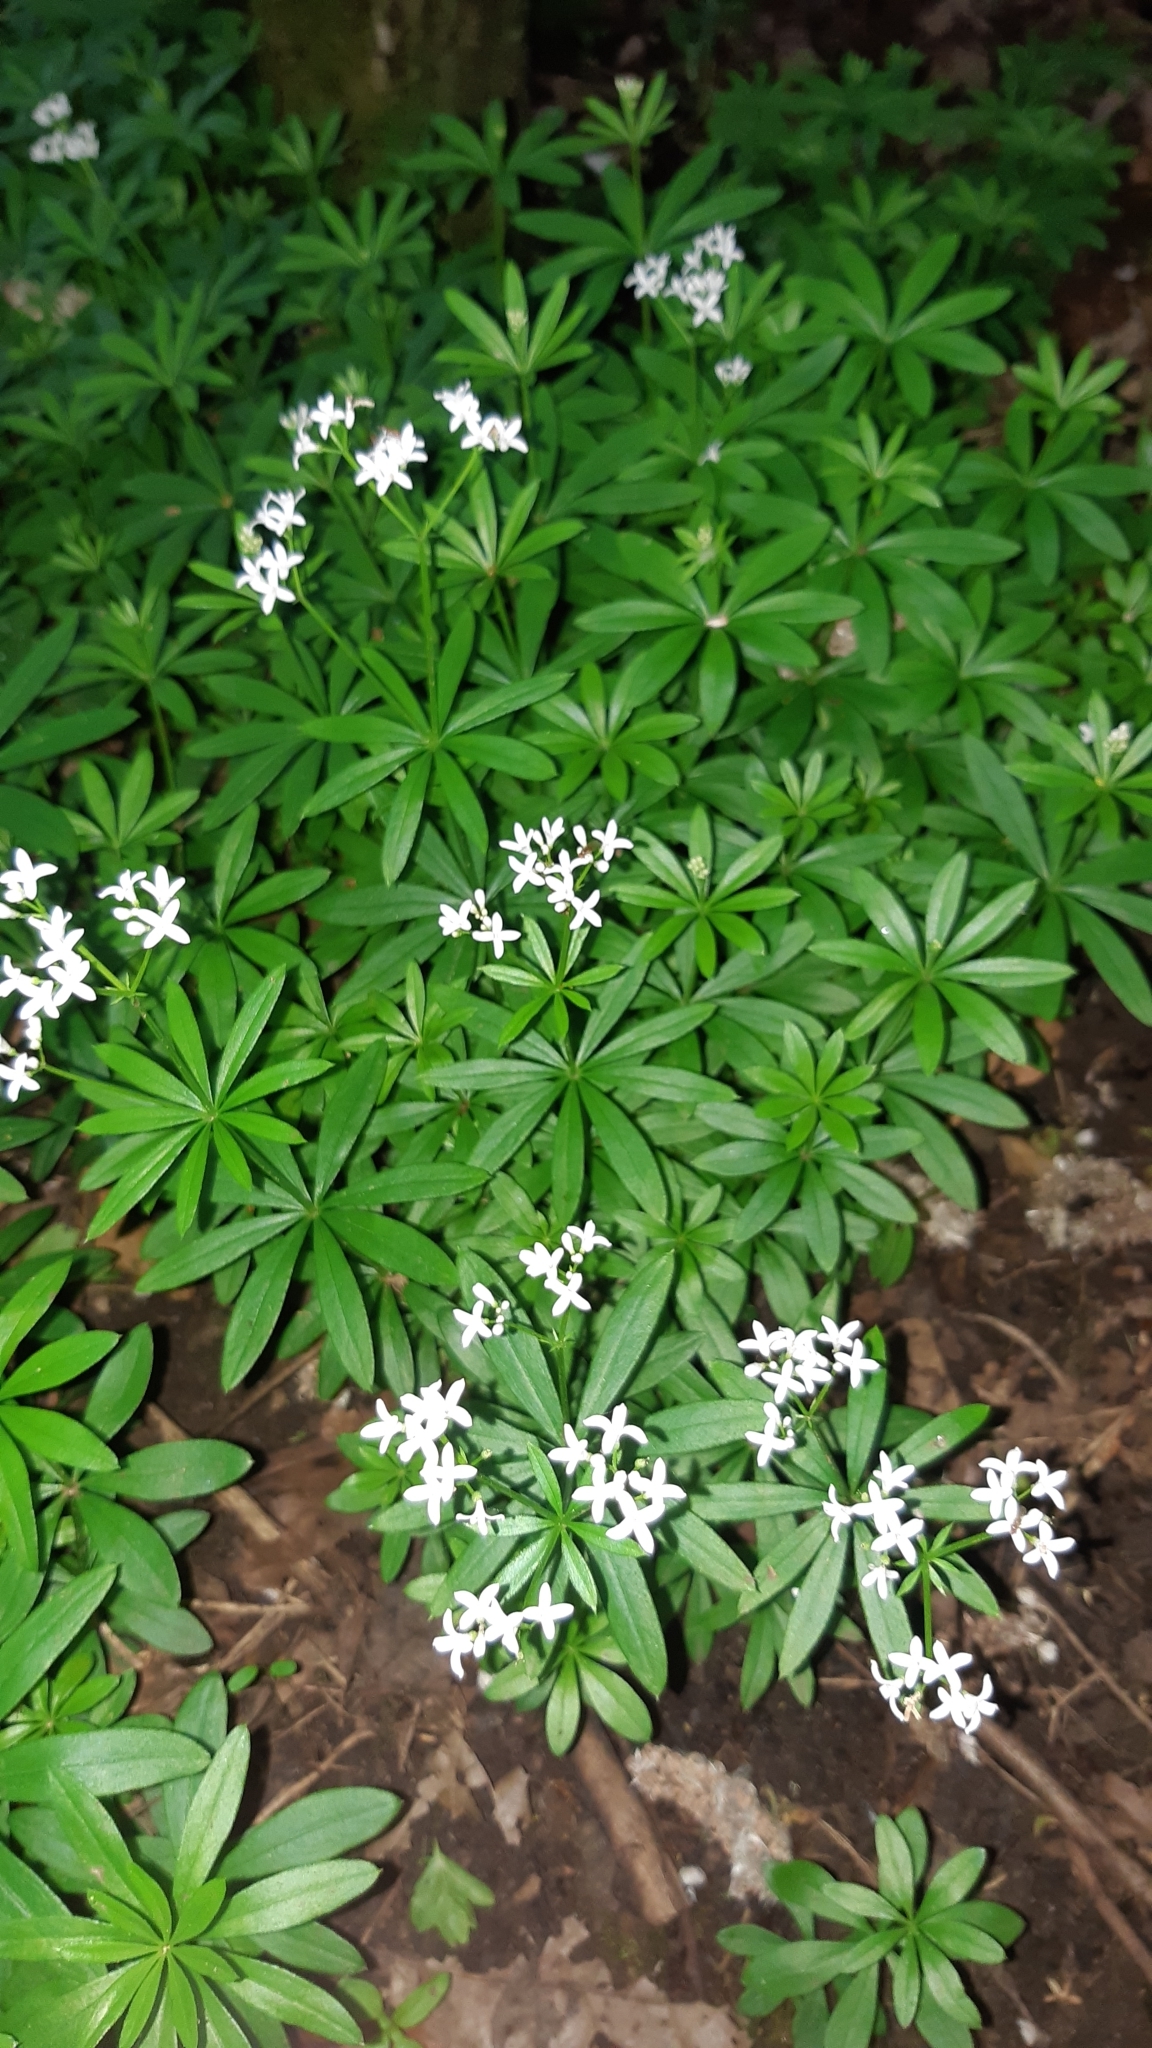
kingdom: Plantae
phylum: Tracheophyta
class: Magnoliopsida
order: Gentianales
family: Rubiaceae
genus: Galium
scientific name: Galium odoratum
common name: Sweet woodruff
